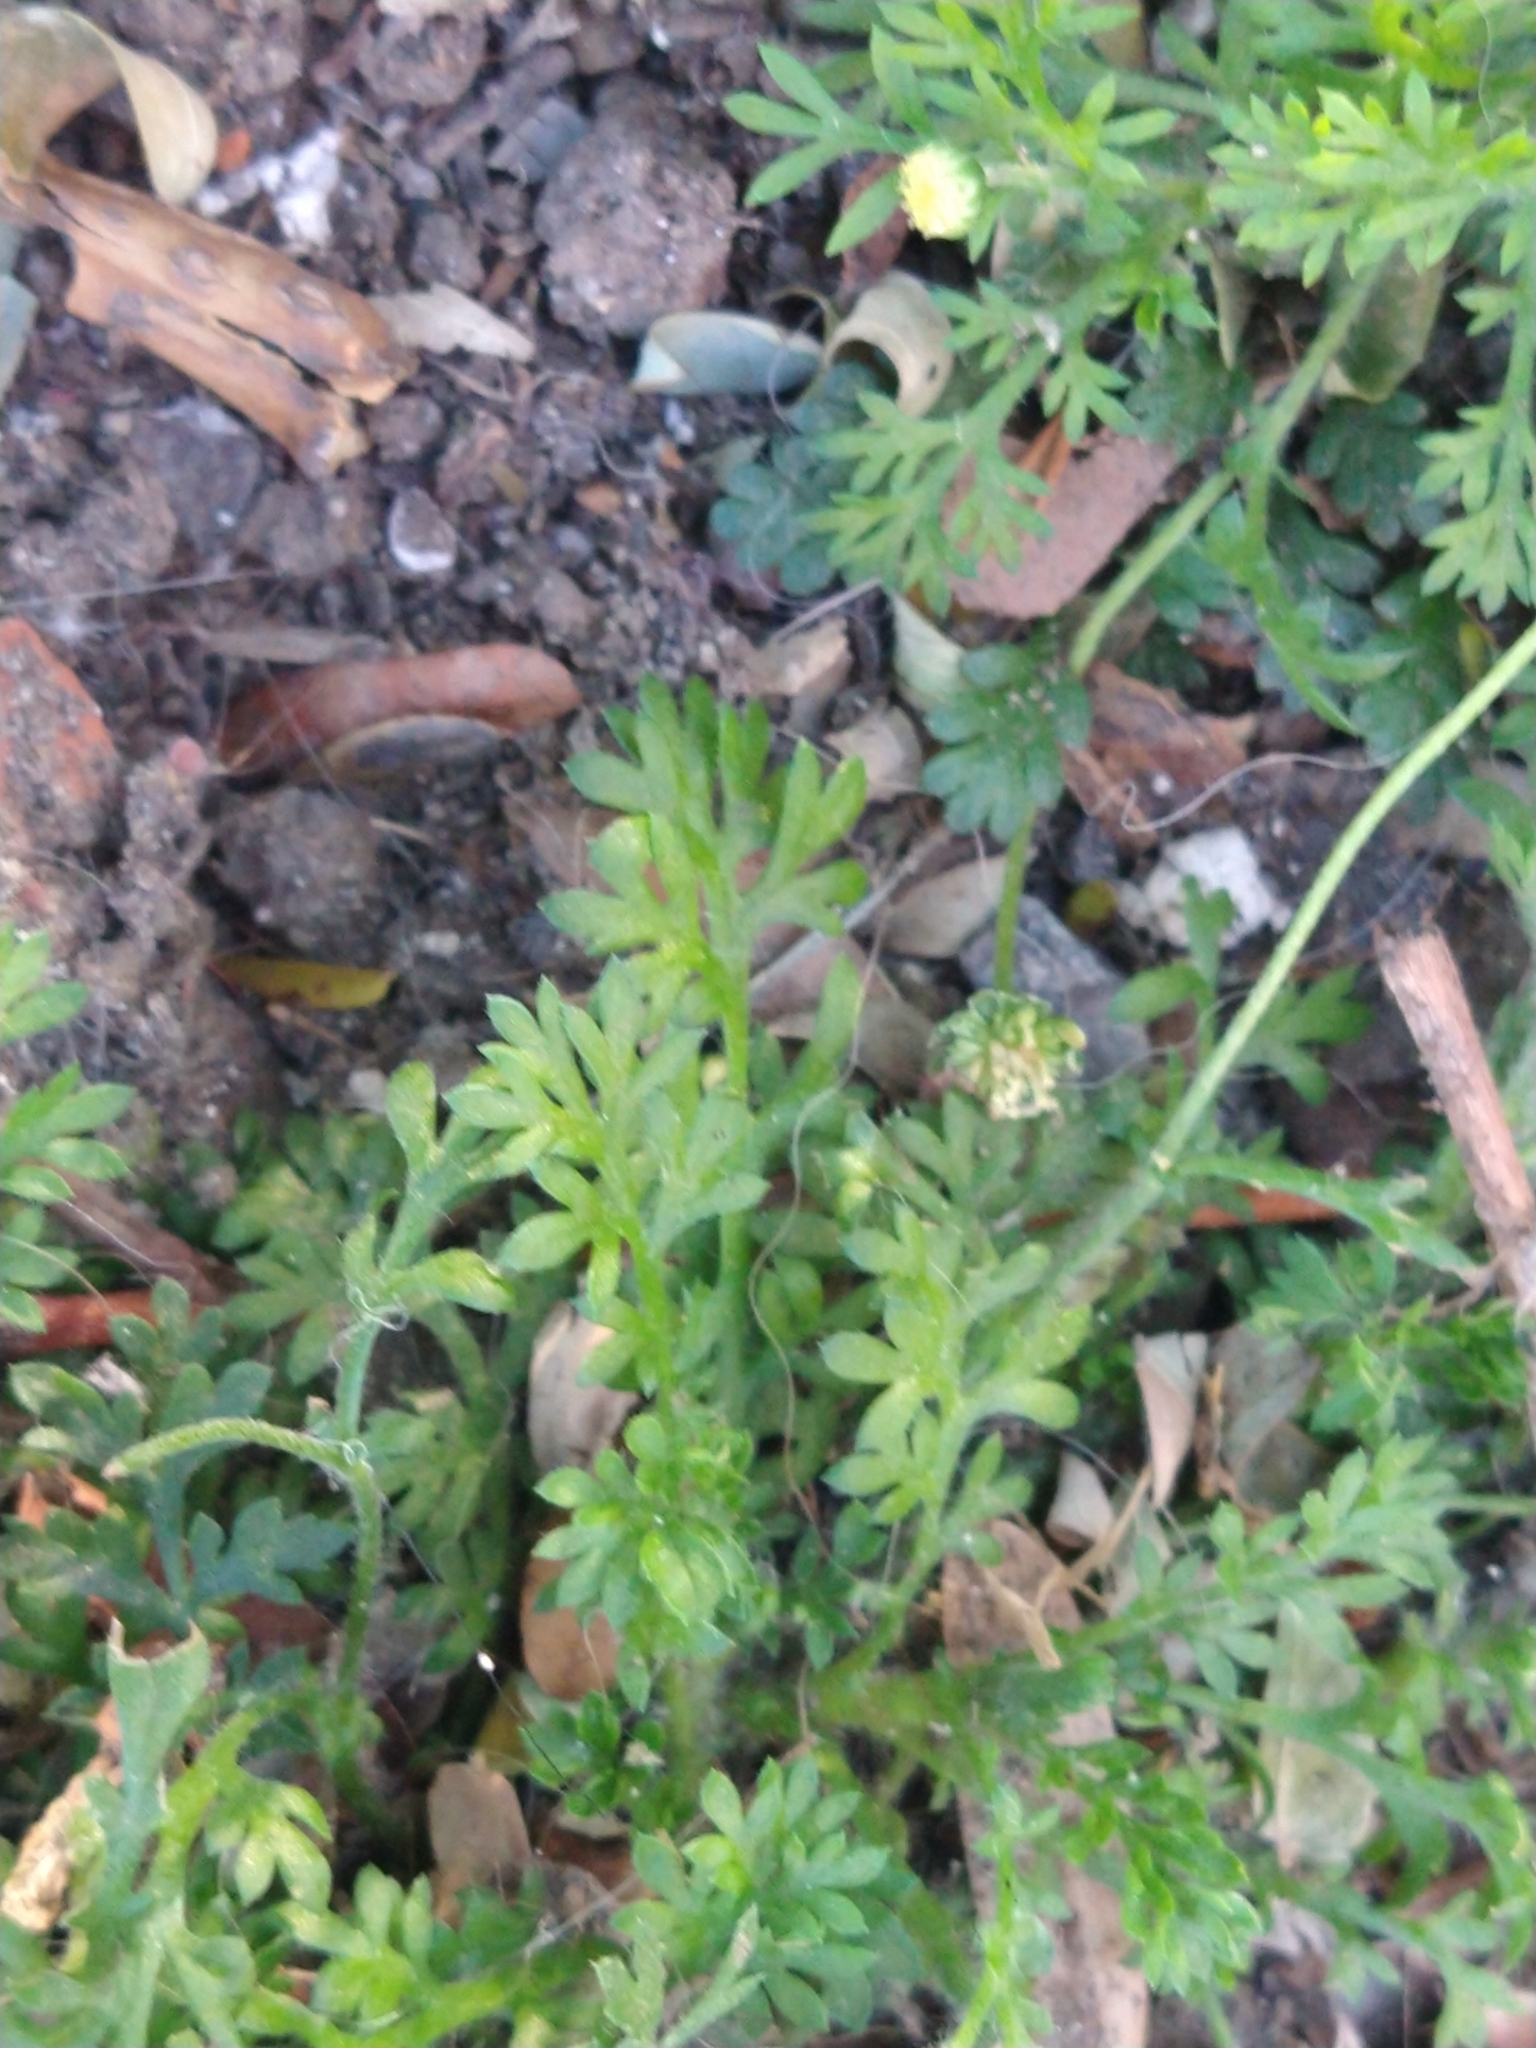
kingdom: Plantae
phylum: Tracheophyta
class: Magnoliopsida
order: Asterales
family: Asteraceae
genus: Cotula
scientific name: Cotula australis
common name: Australian waterbuttons
